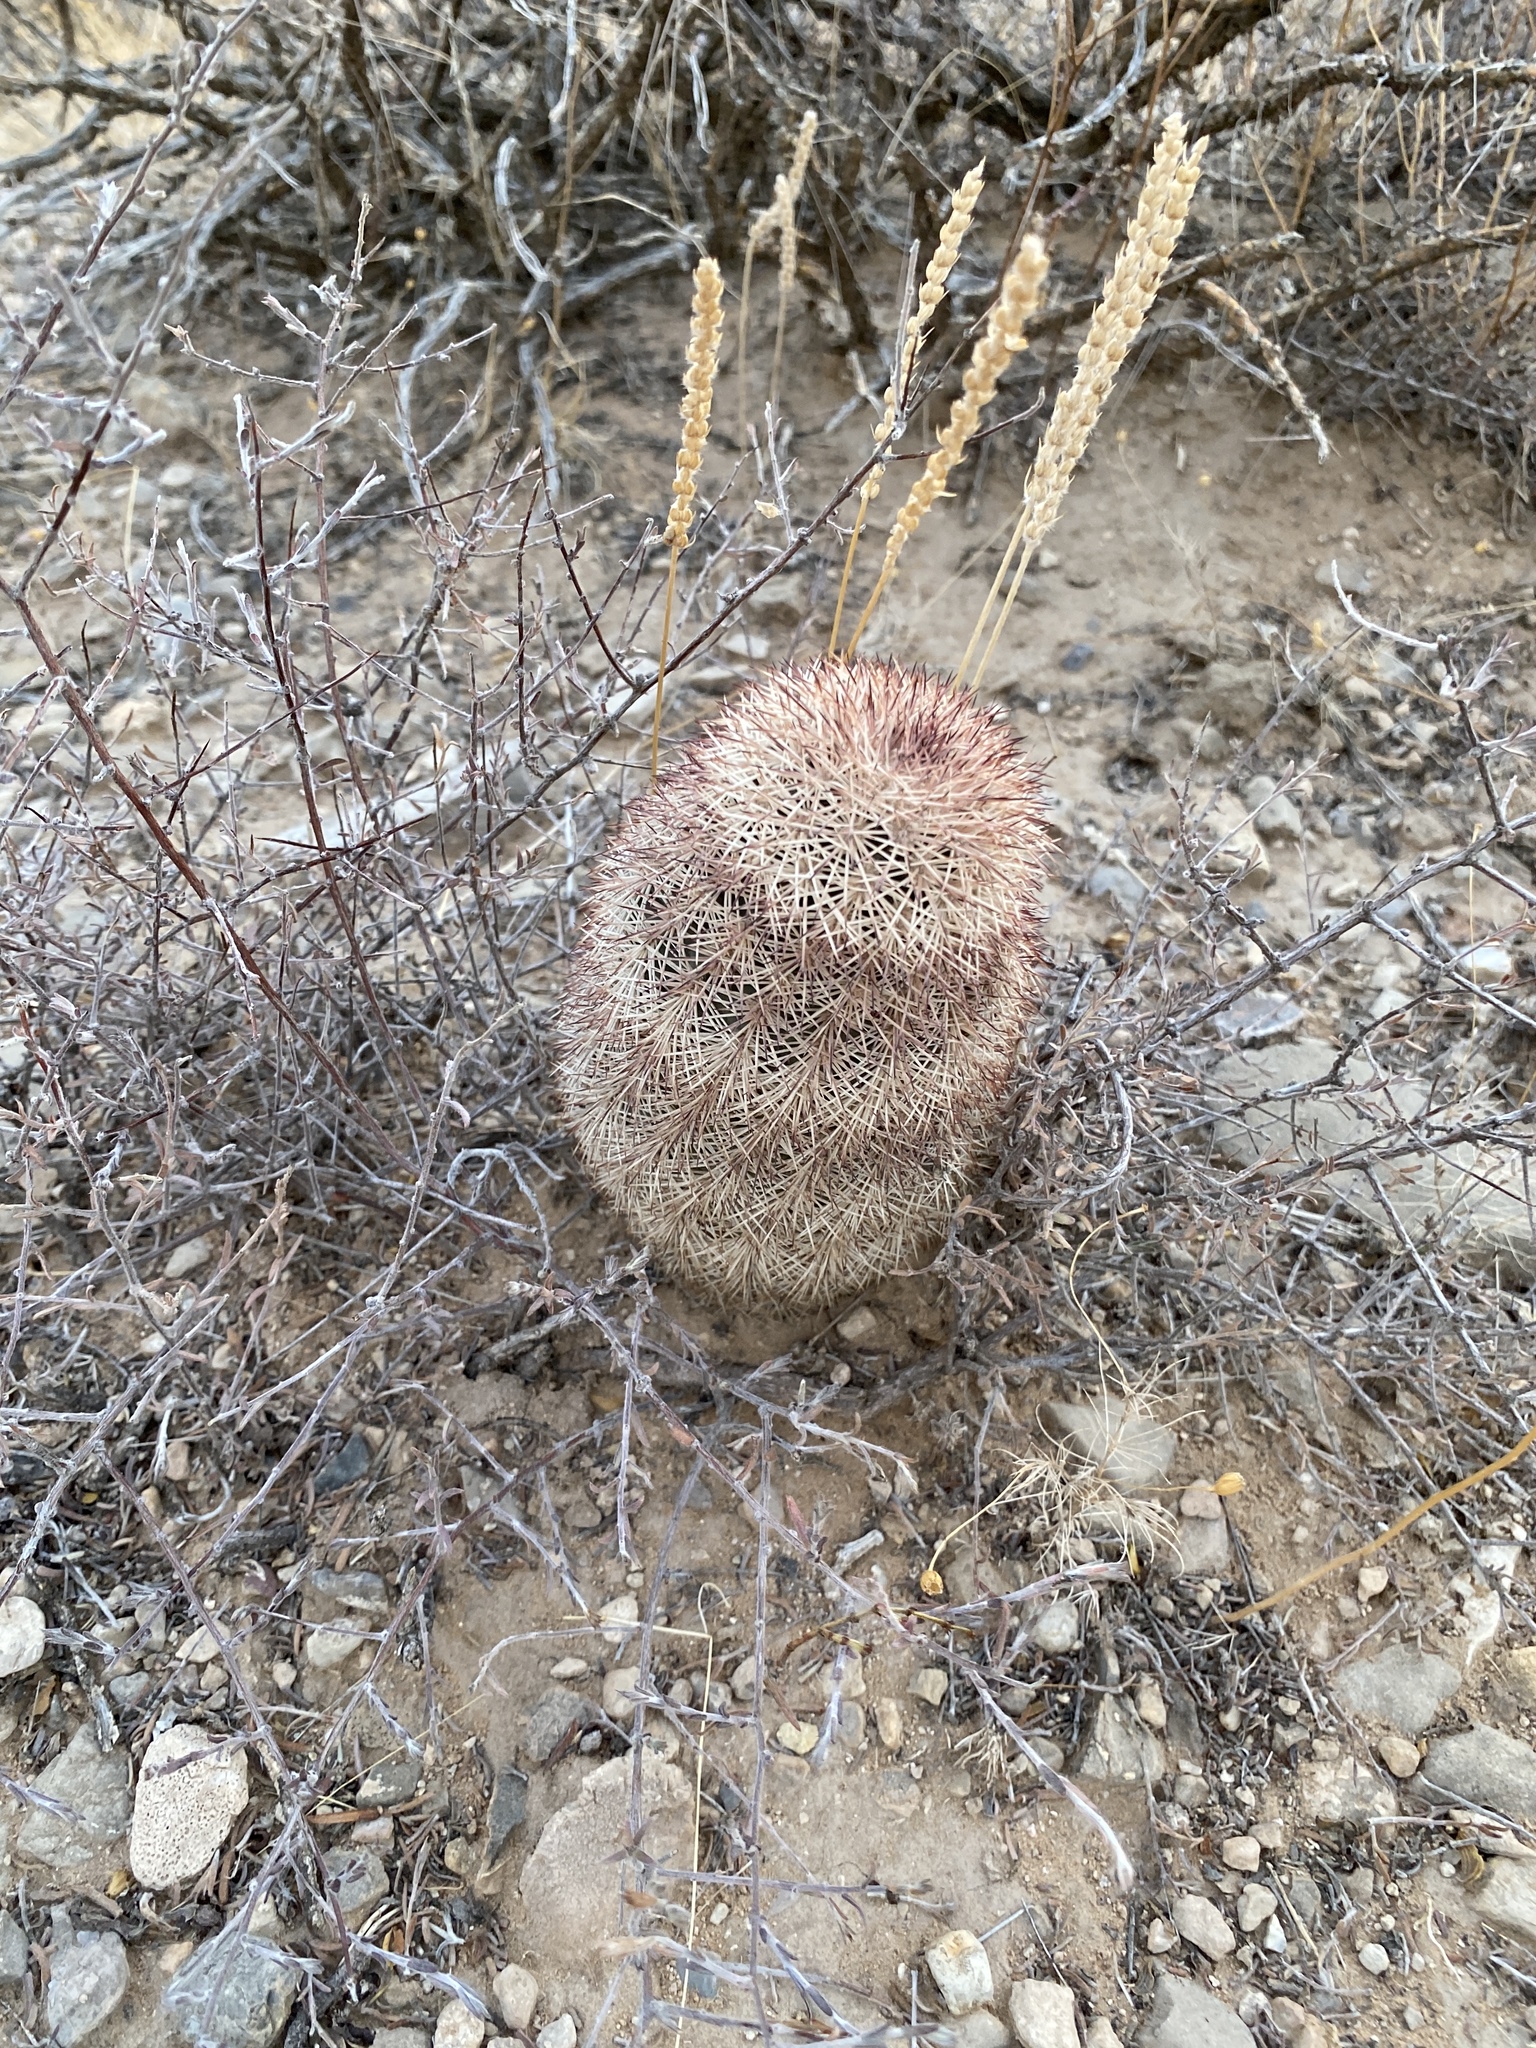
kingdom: Plantae
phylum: Tracheophyta
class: Magnoliopsida
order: Caryophyllales
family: Cactaceae
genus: Echinocereus
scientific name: Echinocereus dasyacanthus
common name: Spiny hedgehog cactus
